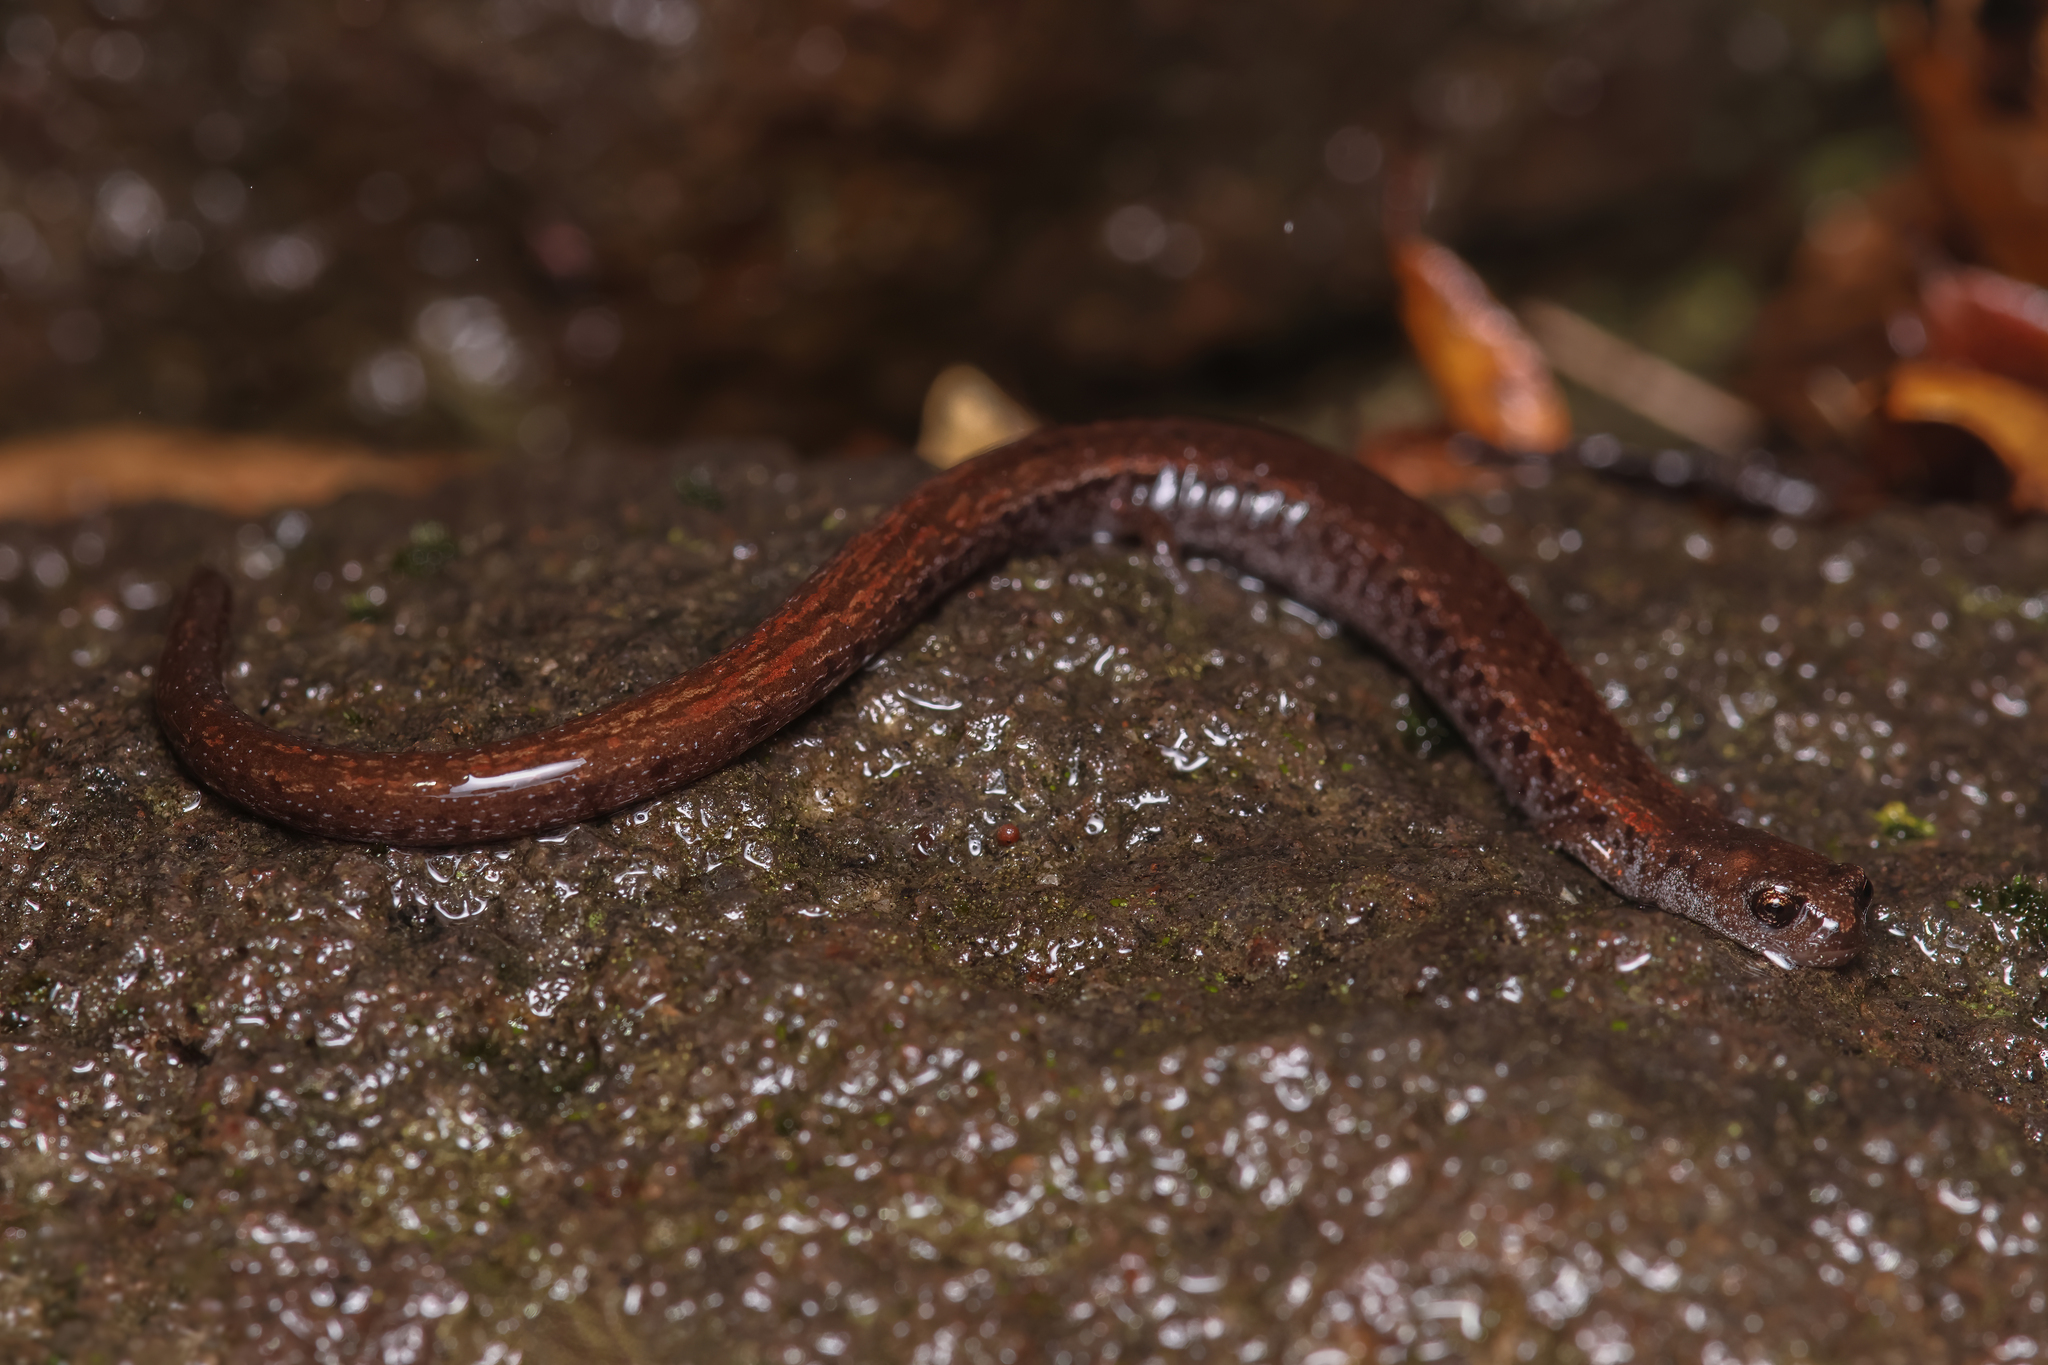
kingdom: Animalia
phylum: Chordata
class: Amphibia
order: Caudata
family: Plethodontidae
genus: Batrachoseps
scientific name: Batrachoseps attenuatus
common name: California slender salamander
